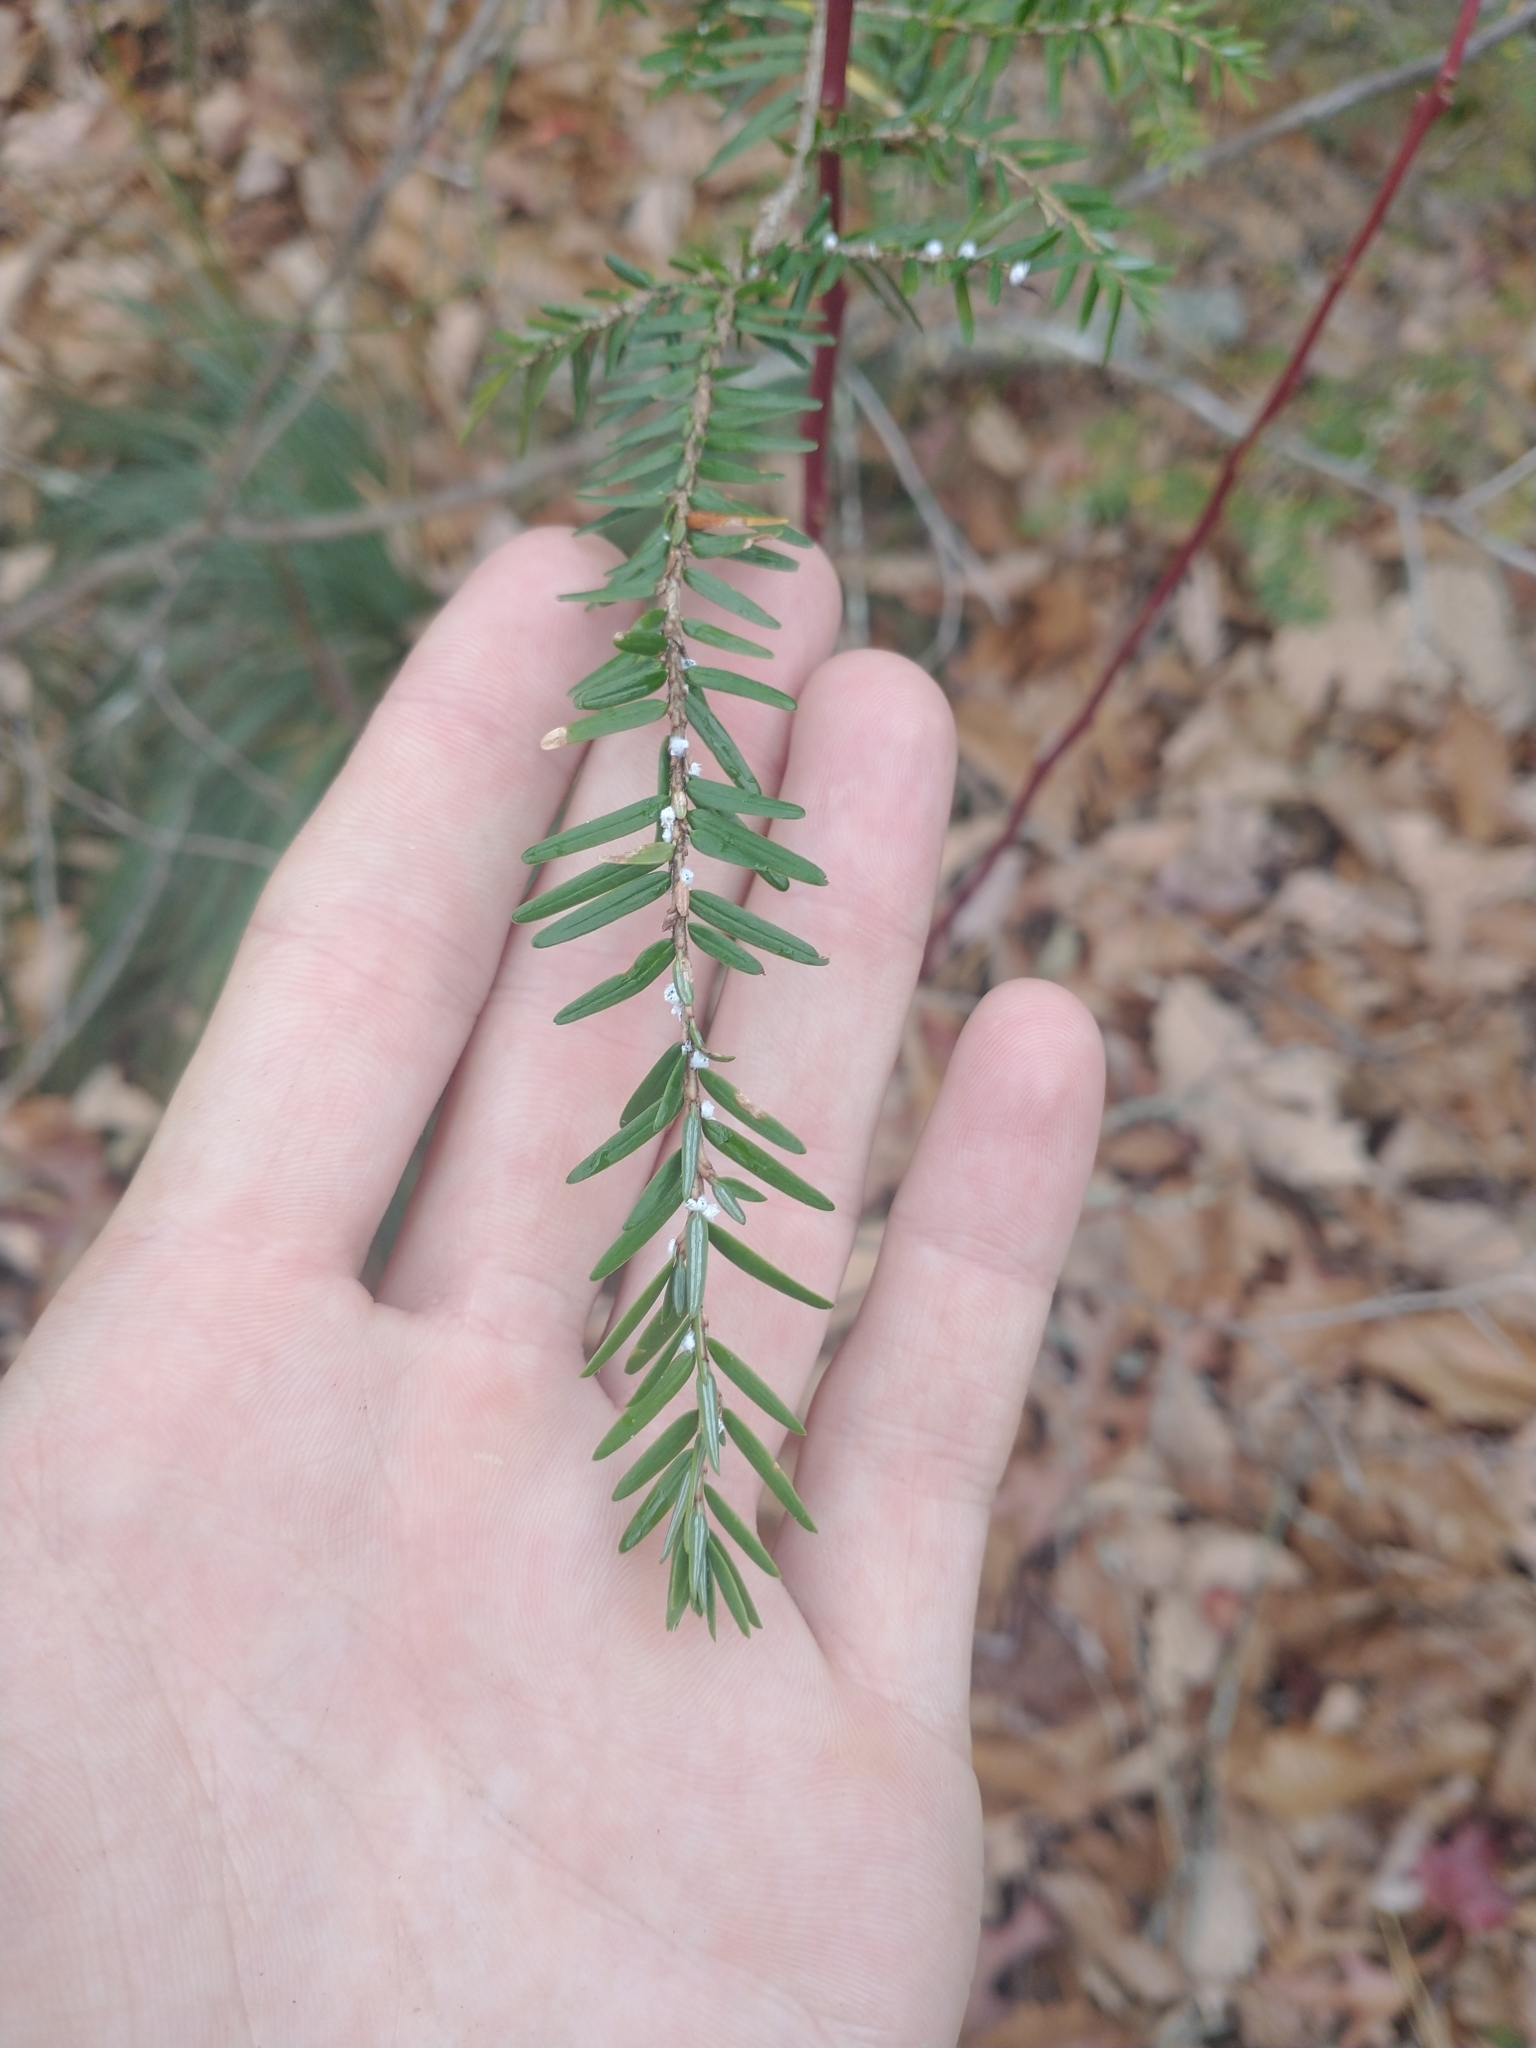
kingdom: Plantae
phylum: Tracheophyta
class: Pinopsida
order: Pinales
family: Pinaceae
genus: Tsuga
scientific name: Tsuga canadensis
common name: Eastern hemlock
